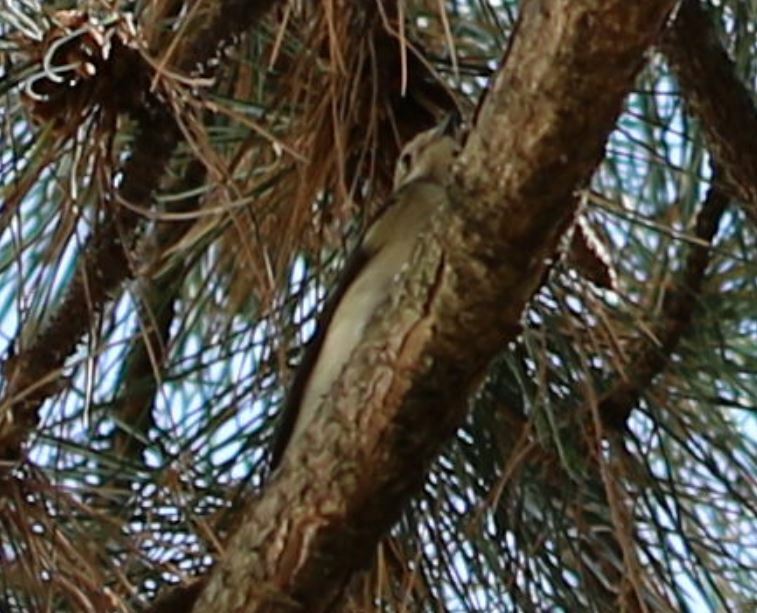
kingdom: Animalia
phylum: Chordata
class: Aves
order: Passeriformes
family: Muscicapidae
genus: Ficedula
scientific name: Ficedula hypoleuca
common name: European pied flycatcher
